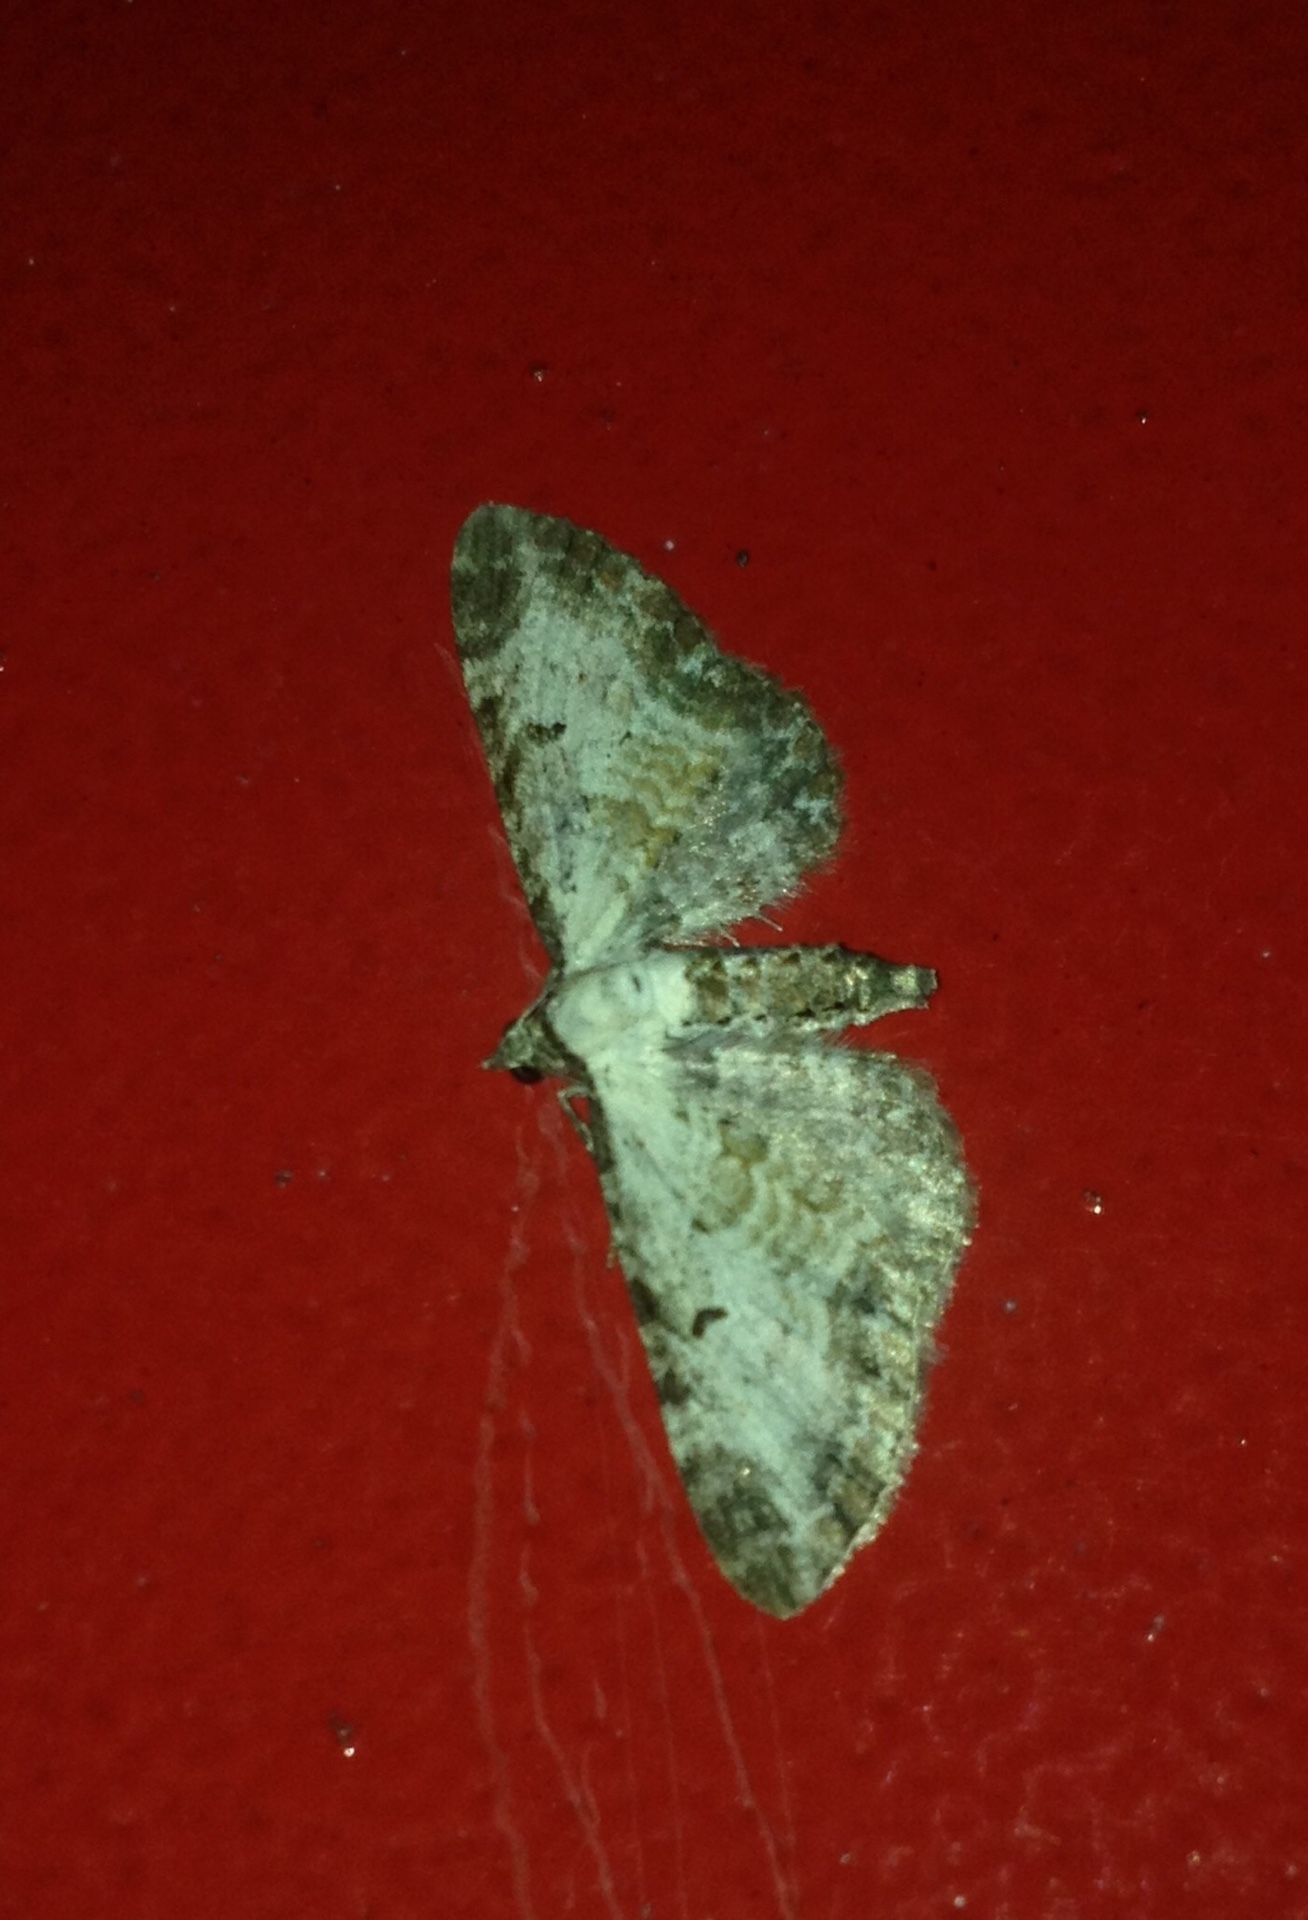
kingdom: Animalia
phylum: Arthropoda
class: Insecta
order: Lepidoptera
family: Geometridae
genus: Eupithecia
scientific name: Eupithecia succenturiata
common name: Bordered pug
